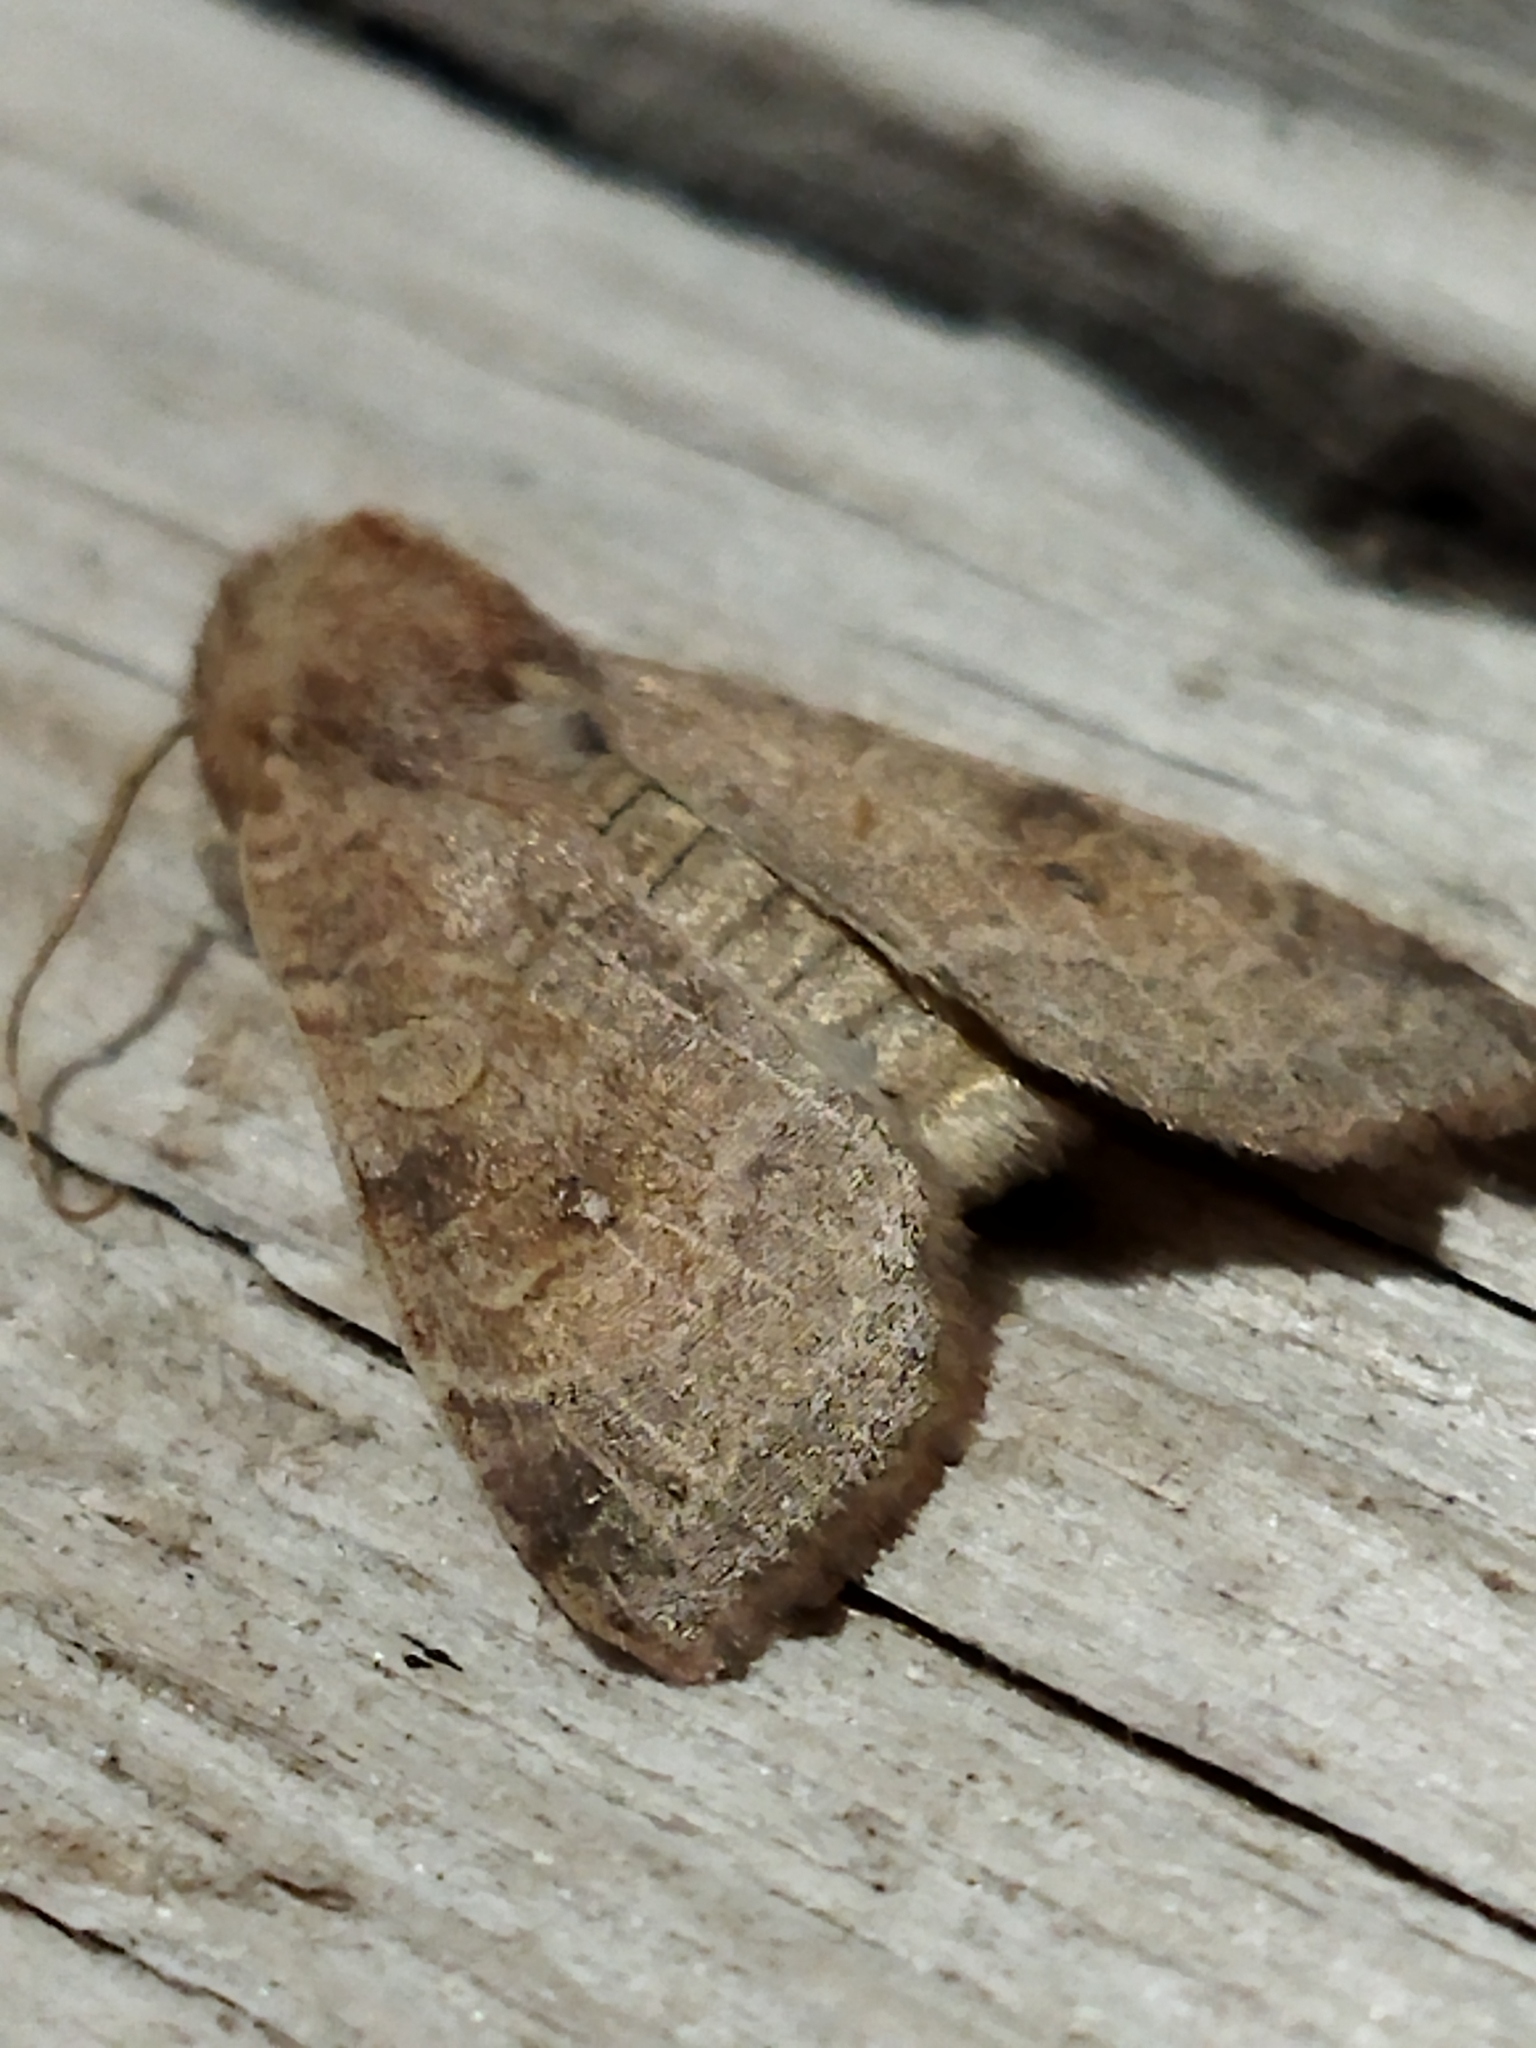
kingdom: Animalia
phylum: Arthropoda
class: Insecta
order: Lepidoptera
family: Noctuidae
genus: Xanthia
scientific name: Xanthia ocellaris
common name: Pale-lemon sallow
